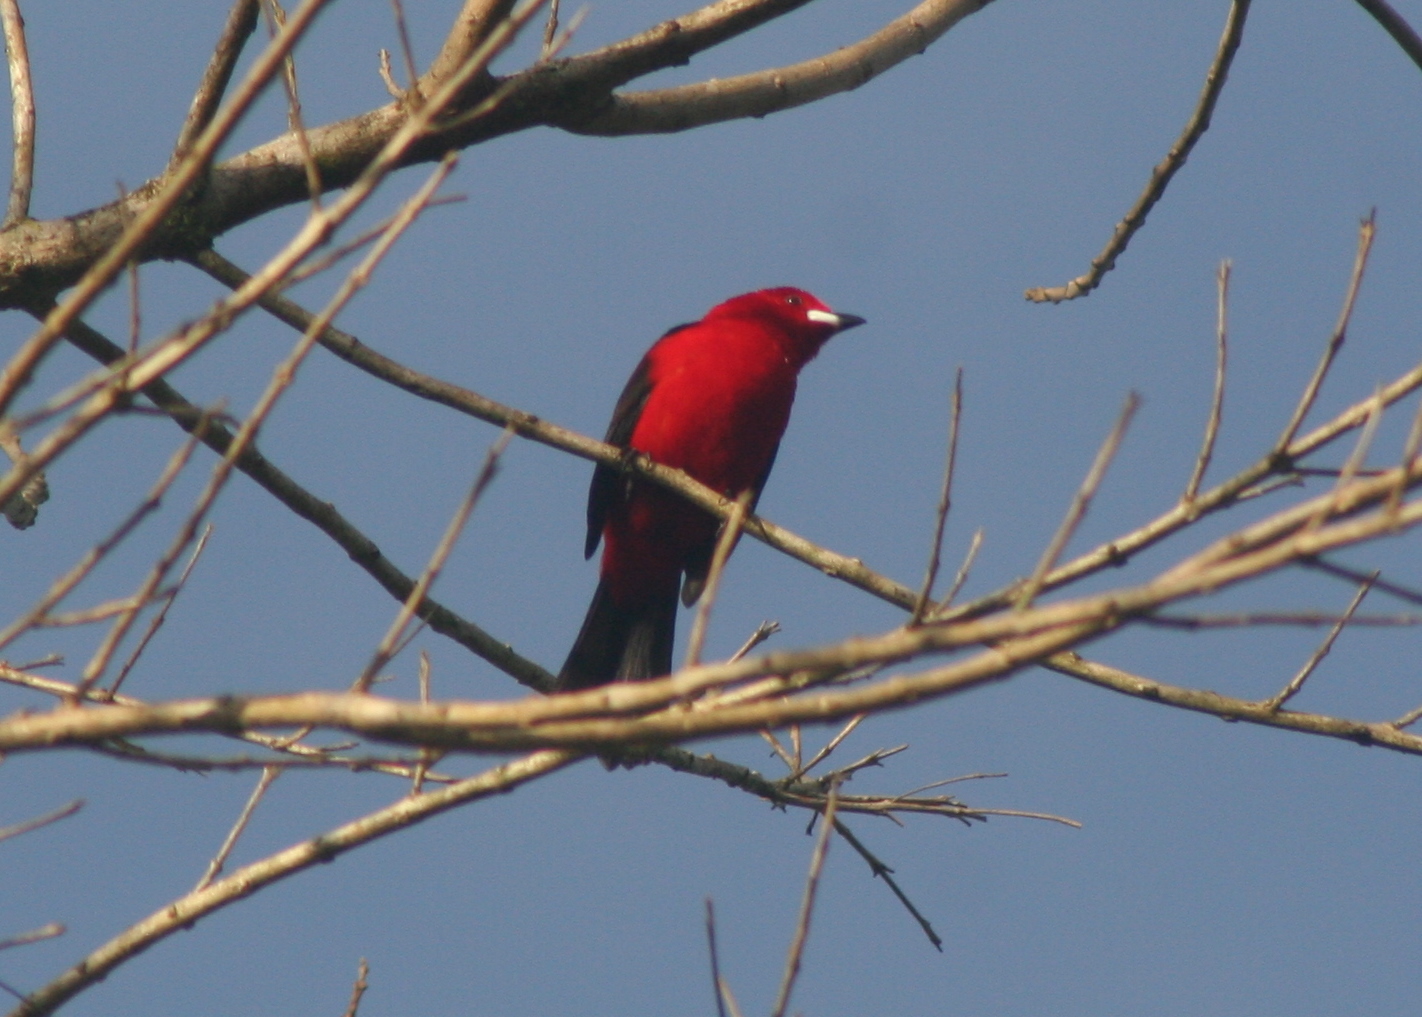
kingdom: Animalia
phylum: Chordata
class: Aves
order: Passeriformes
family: Thraupidae
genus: Ramphocelus
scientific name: Ramphocelus bresilia
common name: Brazilian tanager
